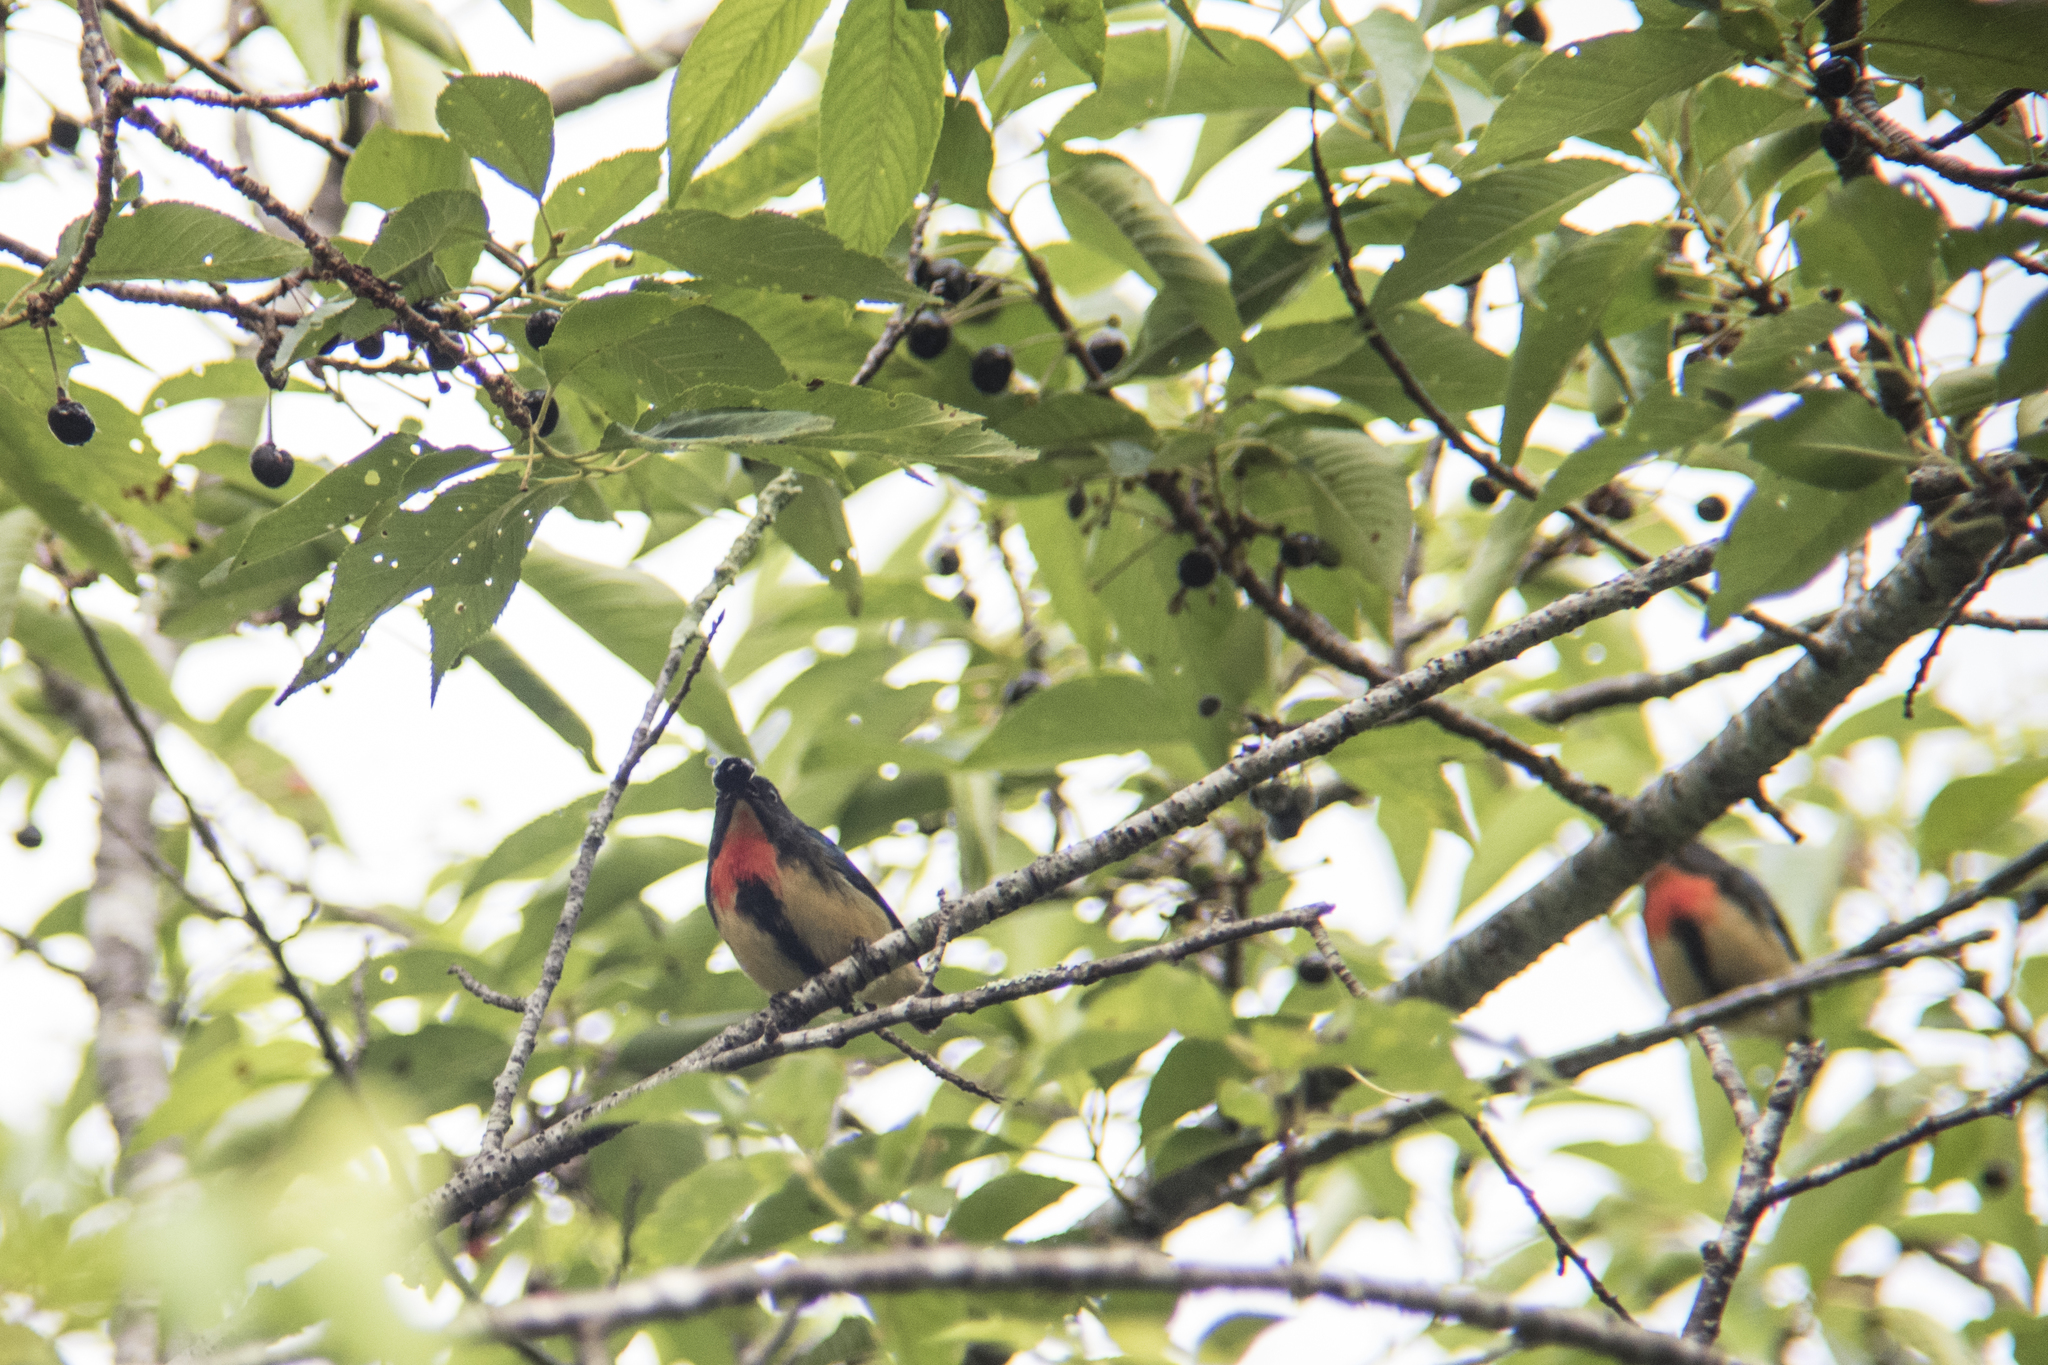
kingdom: Animalia
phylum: Chordata
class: Aves
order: Passeriformes
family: Dicaeidae
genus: Dicaeum
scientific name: Dicaeum ignipectus
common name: Fire-breasted flowerpecker
